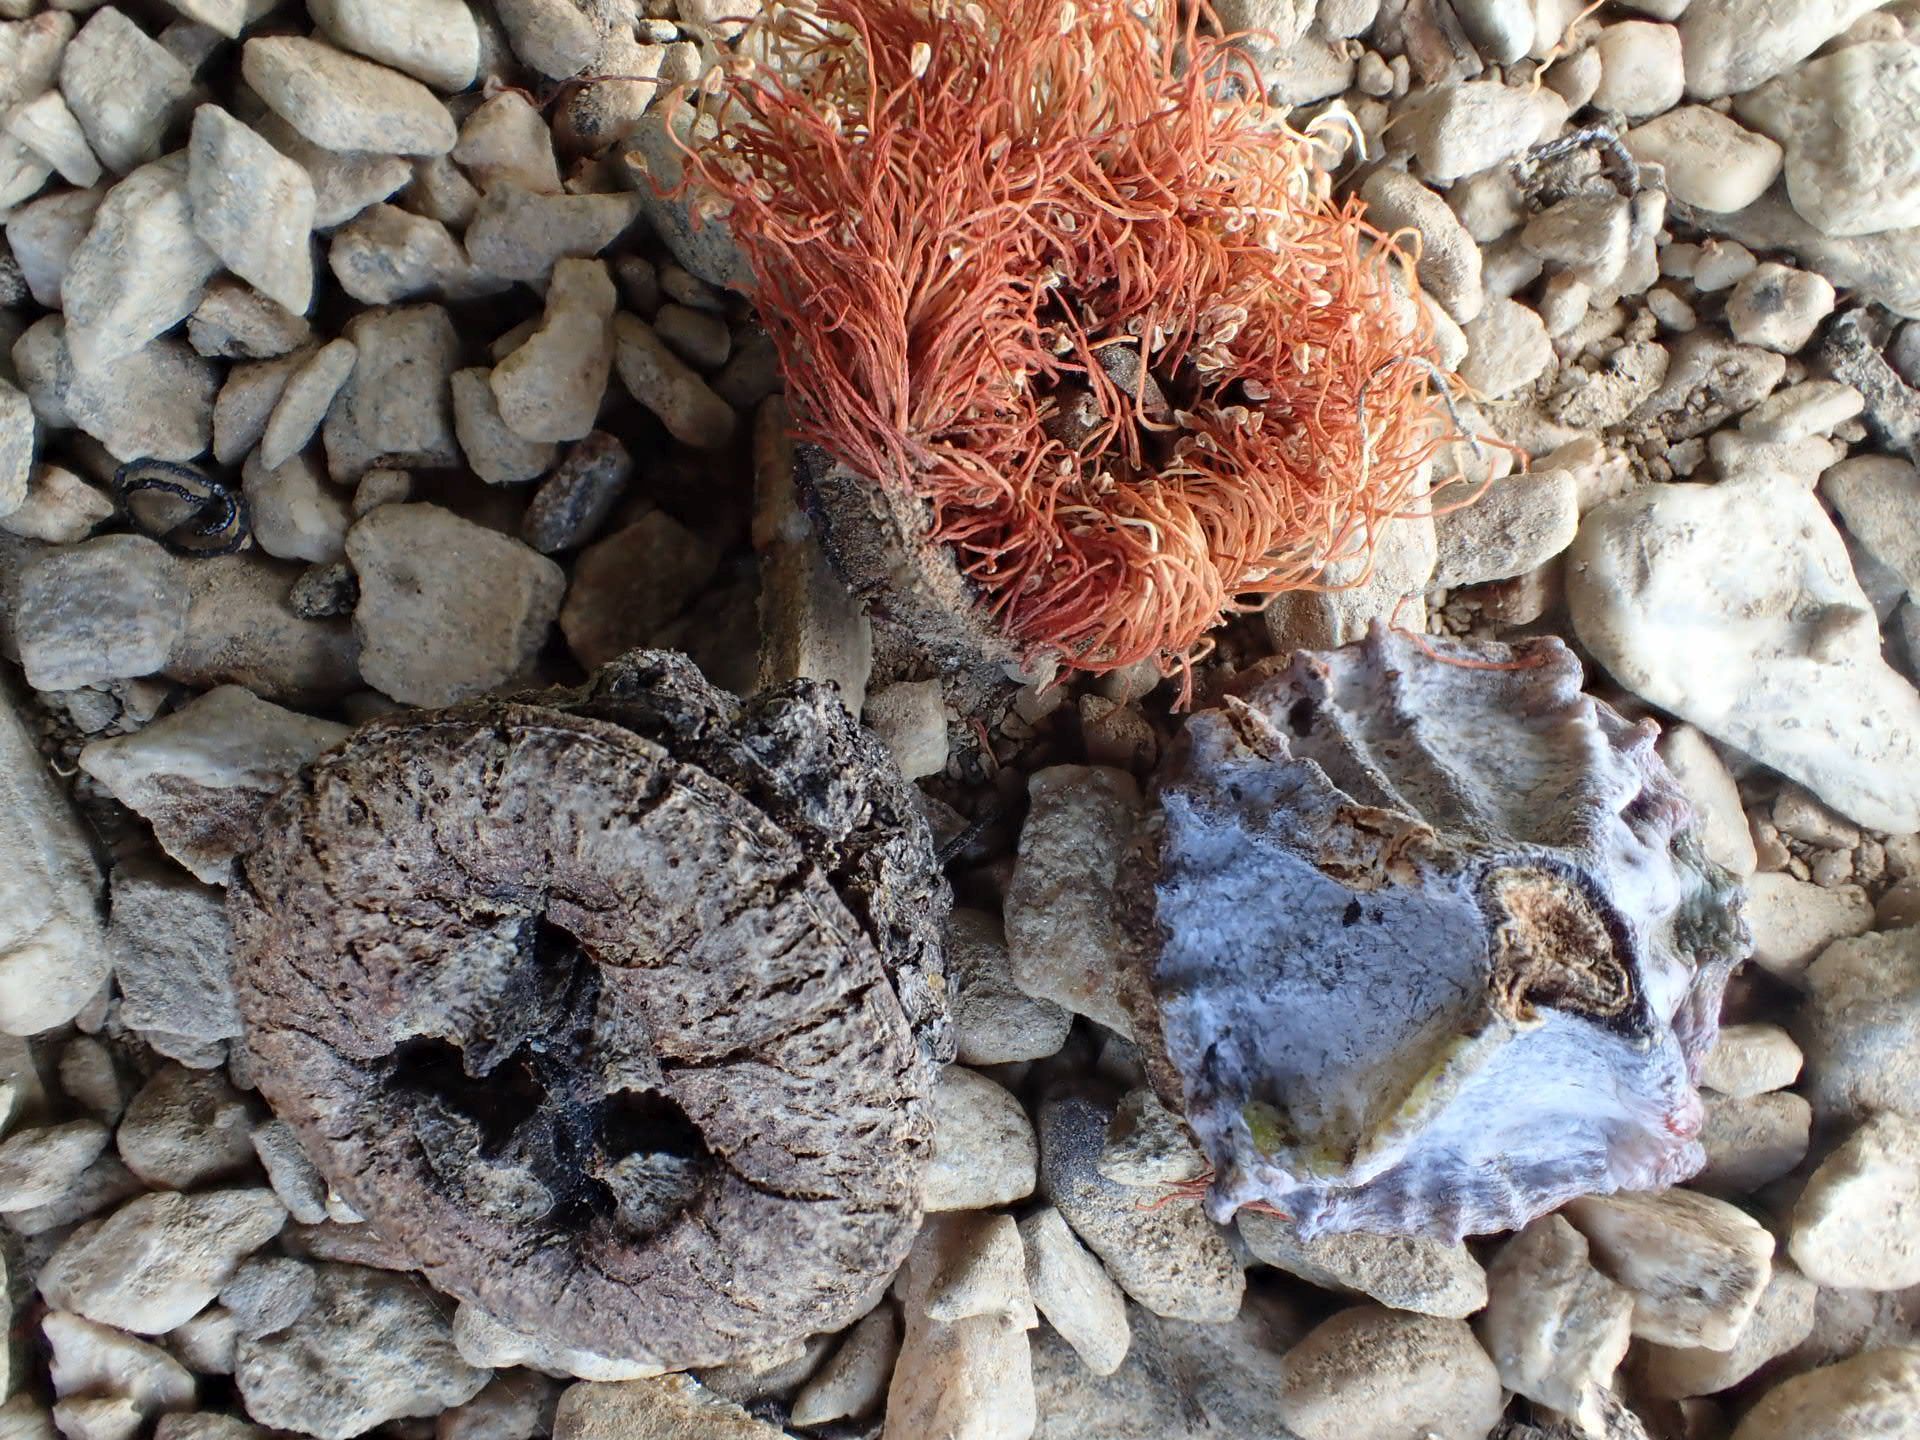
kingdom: Plantae
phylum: Tracheophyta
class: Magnoliopsida
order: Myrtales
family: Myrtaceae
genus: Eucalyptus
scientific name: Eucalyptus globulus
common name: Southern blue-gum
